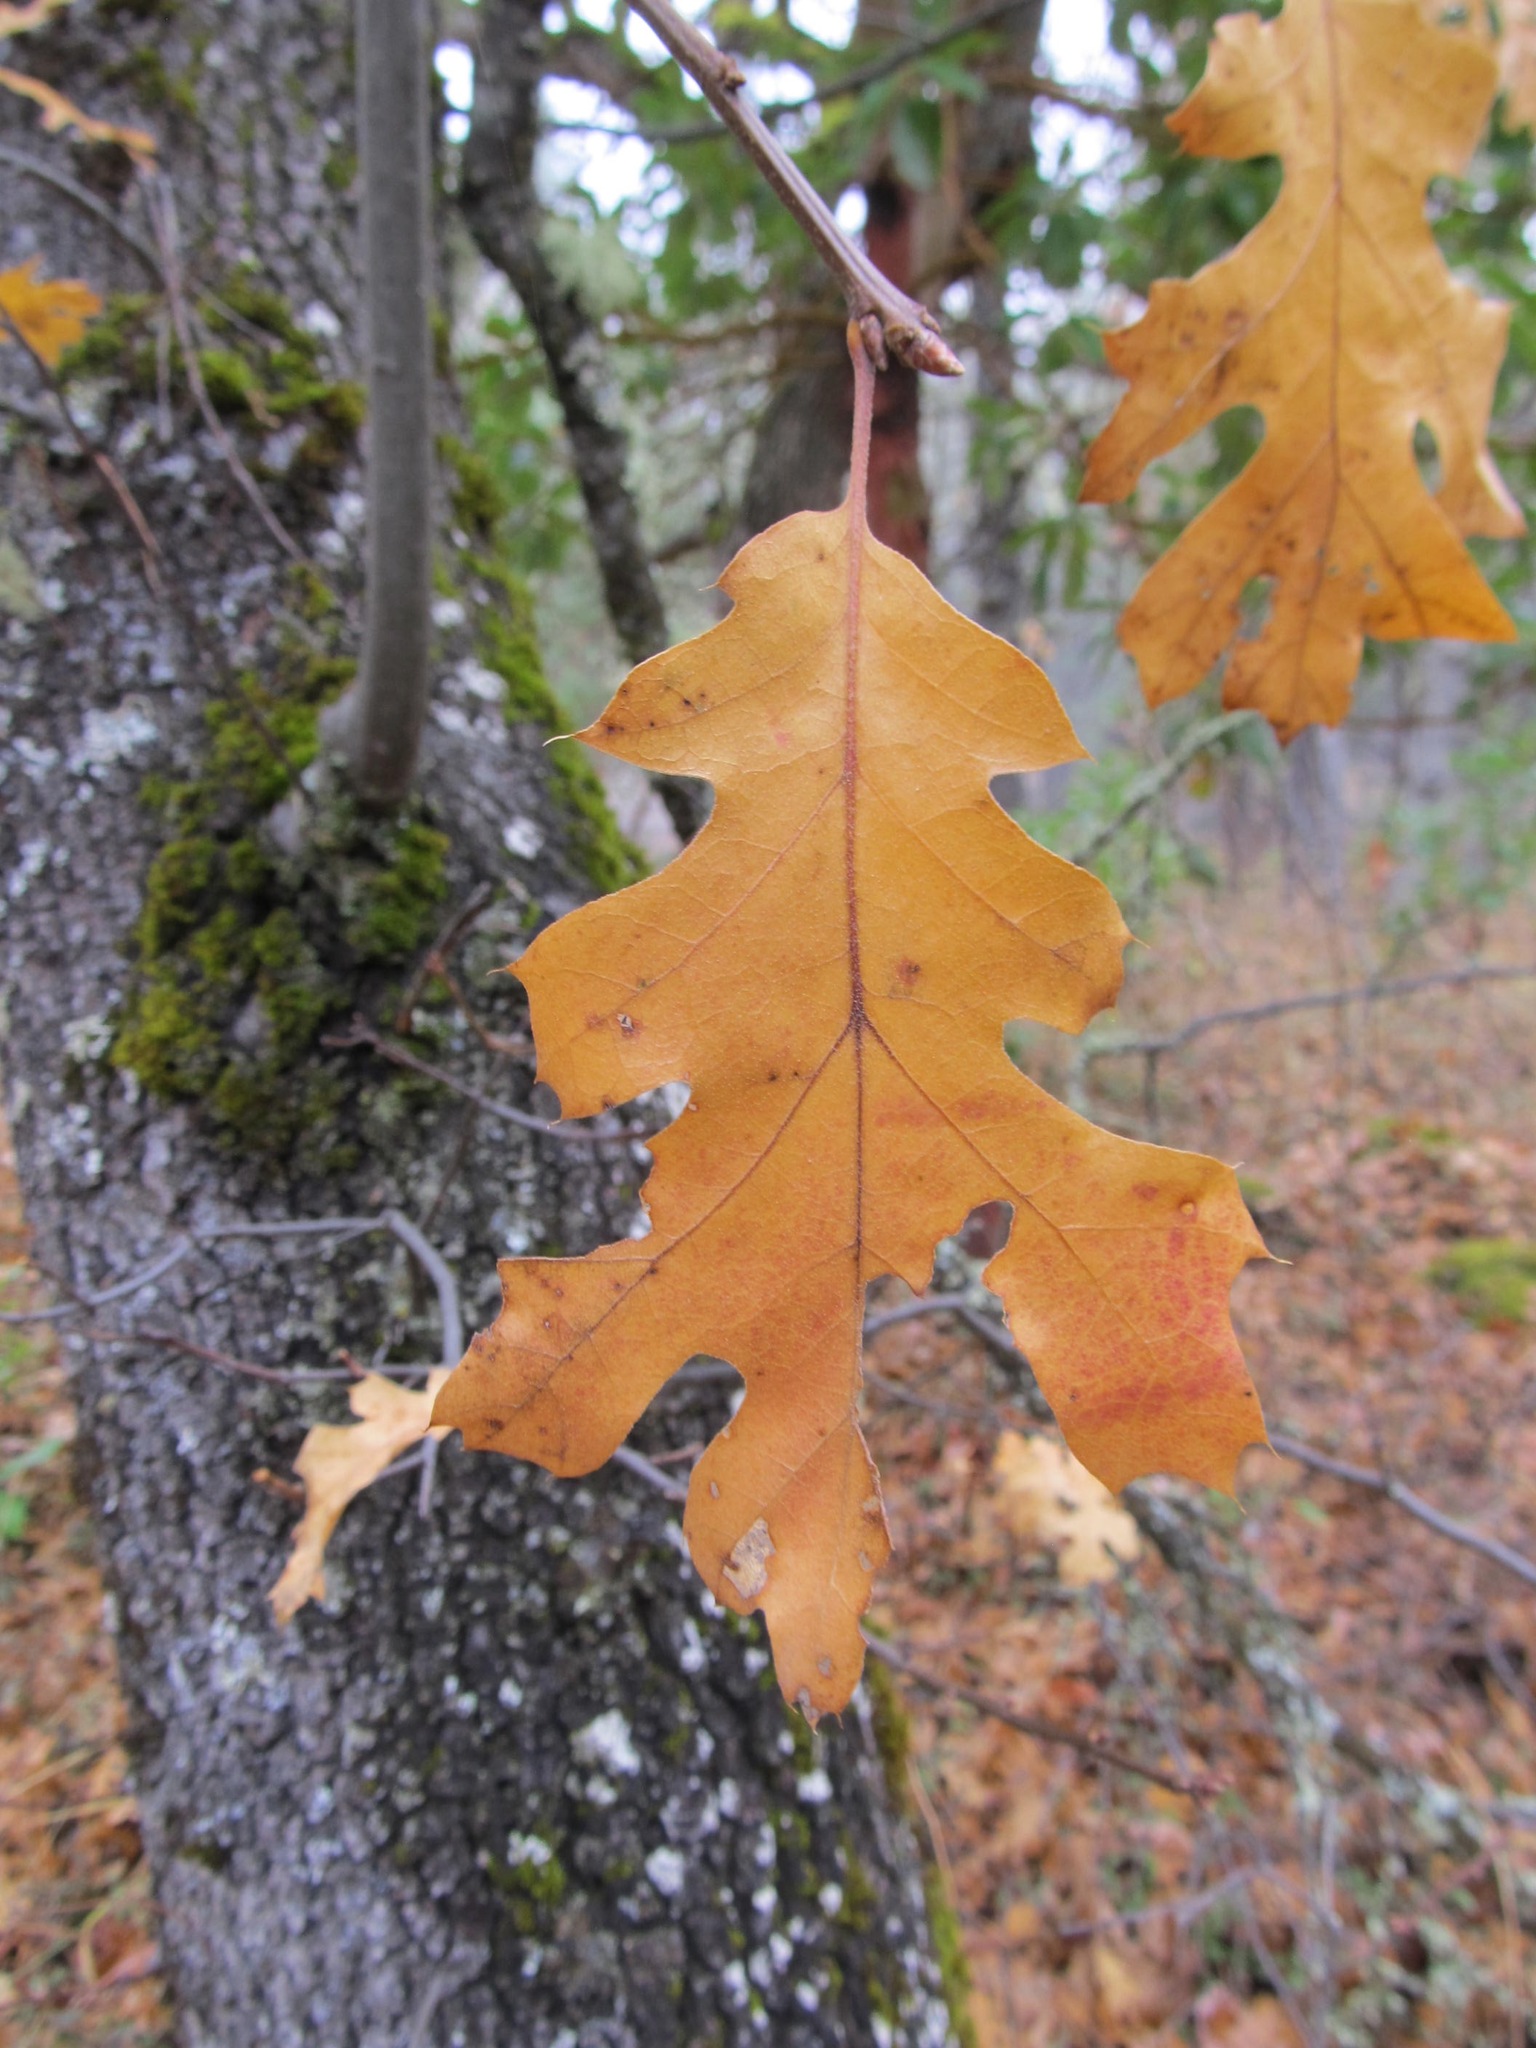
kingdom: Plantae
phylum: Tracheophyta
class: Magnoliopsida
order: Fagales
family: Fagaceae
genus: Quercus
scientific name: Quercus kelloggii
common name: California black oak
